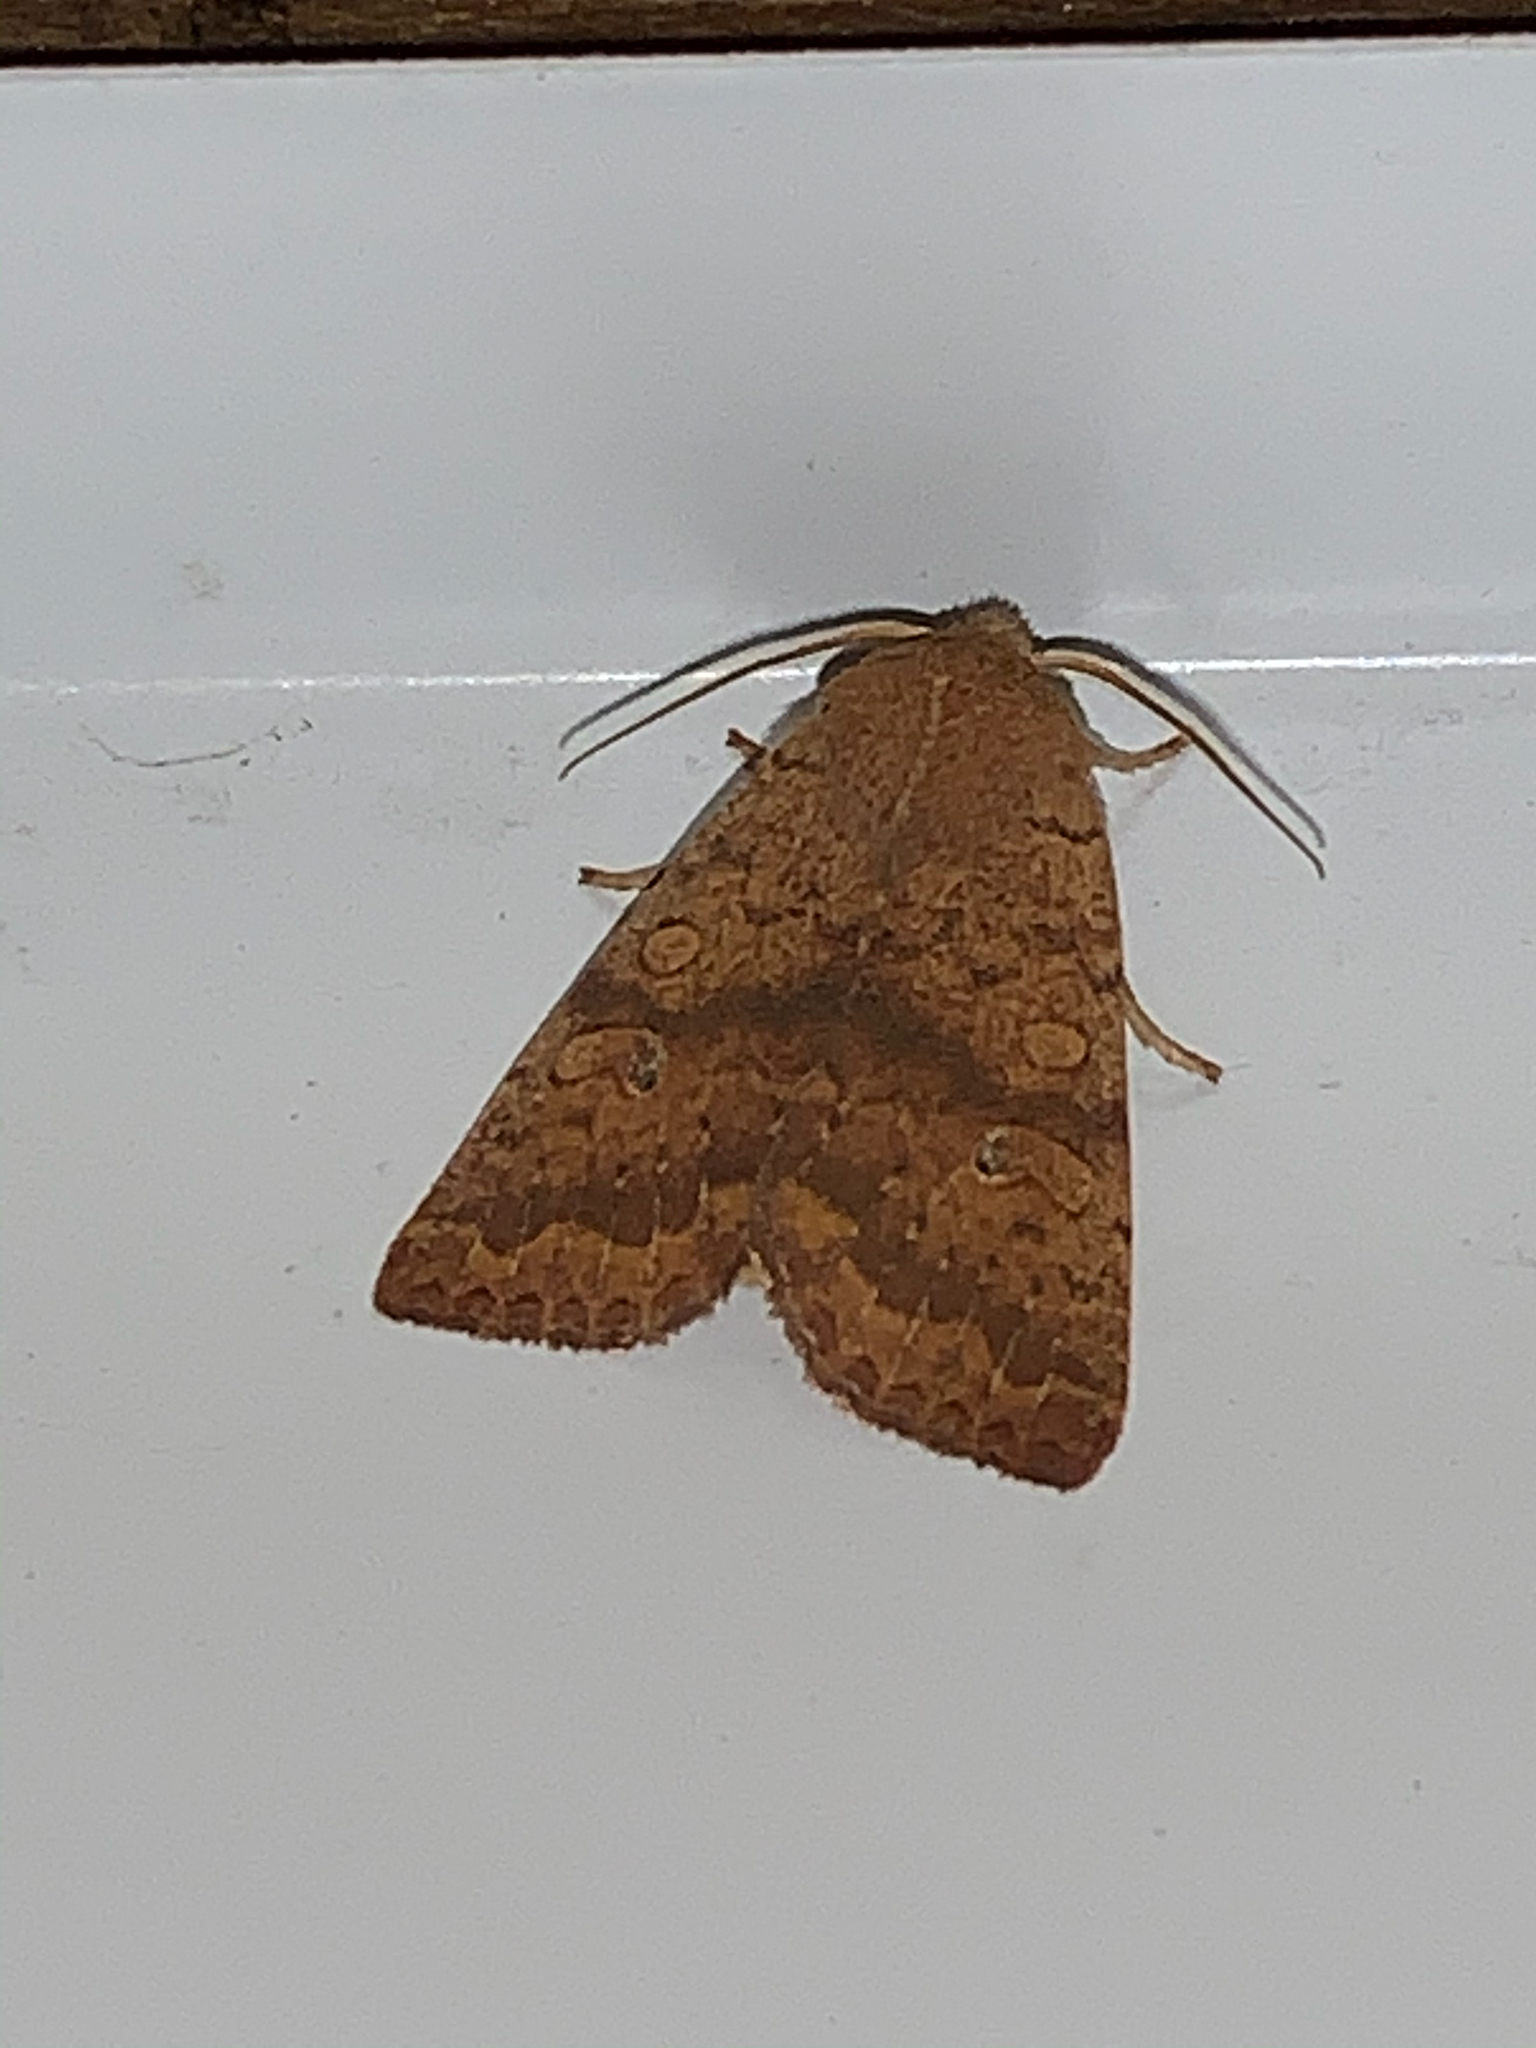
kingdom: Animalia
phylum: Arthropoda
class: Insecta
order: Lepidoptera
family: Noctuidae
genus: Agrochola
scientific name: Agrochola bicolorago
